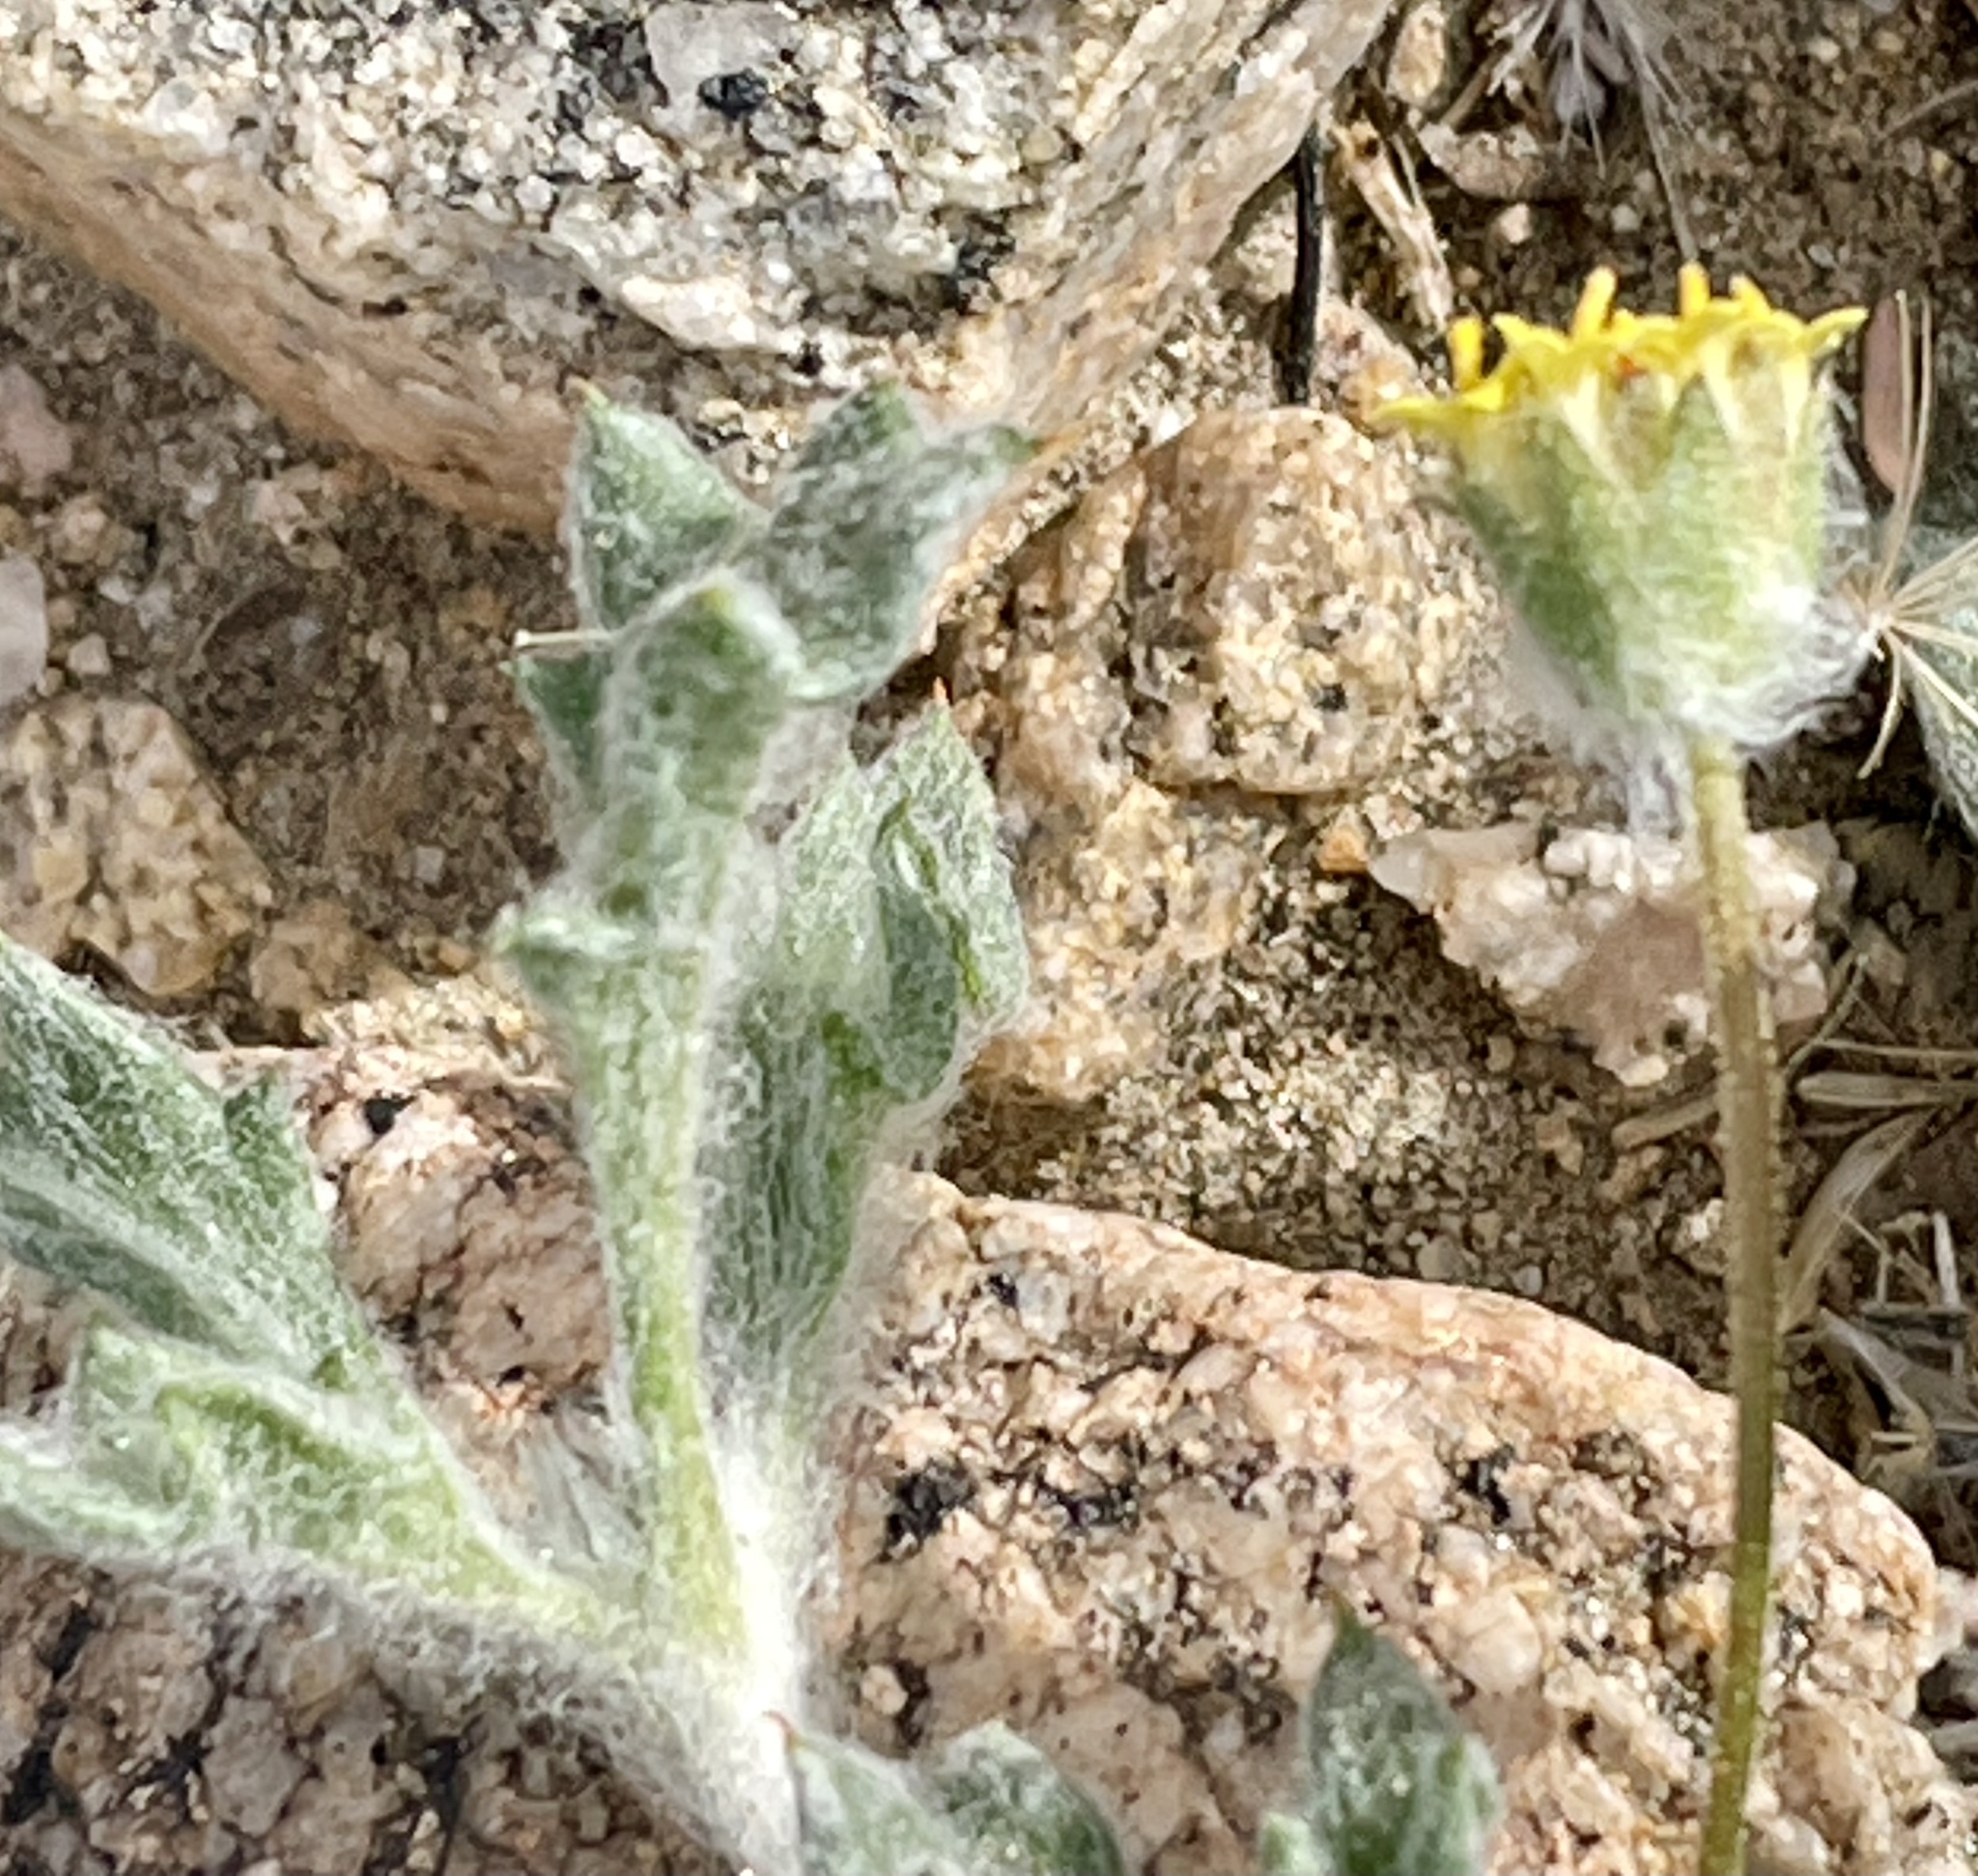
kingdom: Plantae
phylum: Tracheophyta
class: Magnoliopsida
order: Asterales
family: Asteraceae
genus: Trichoptilium
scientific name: Trichoptilium incisum
